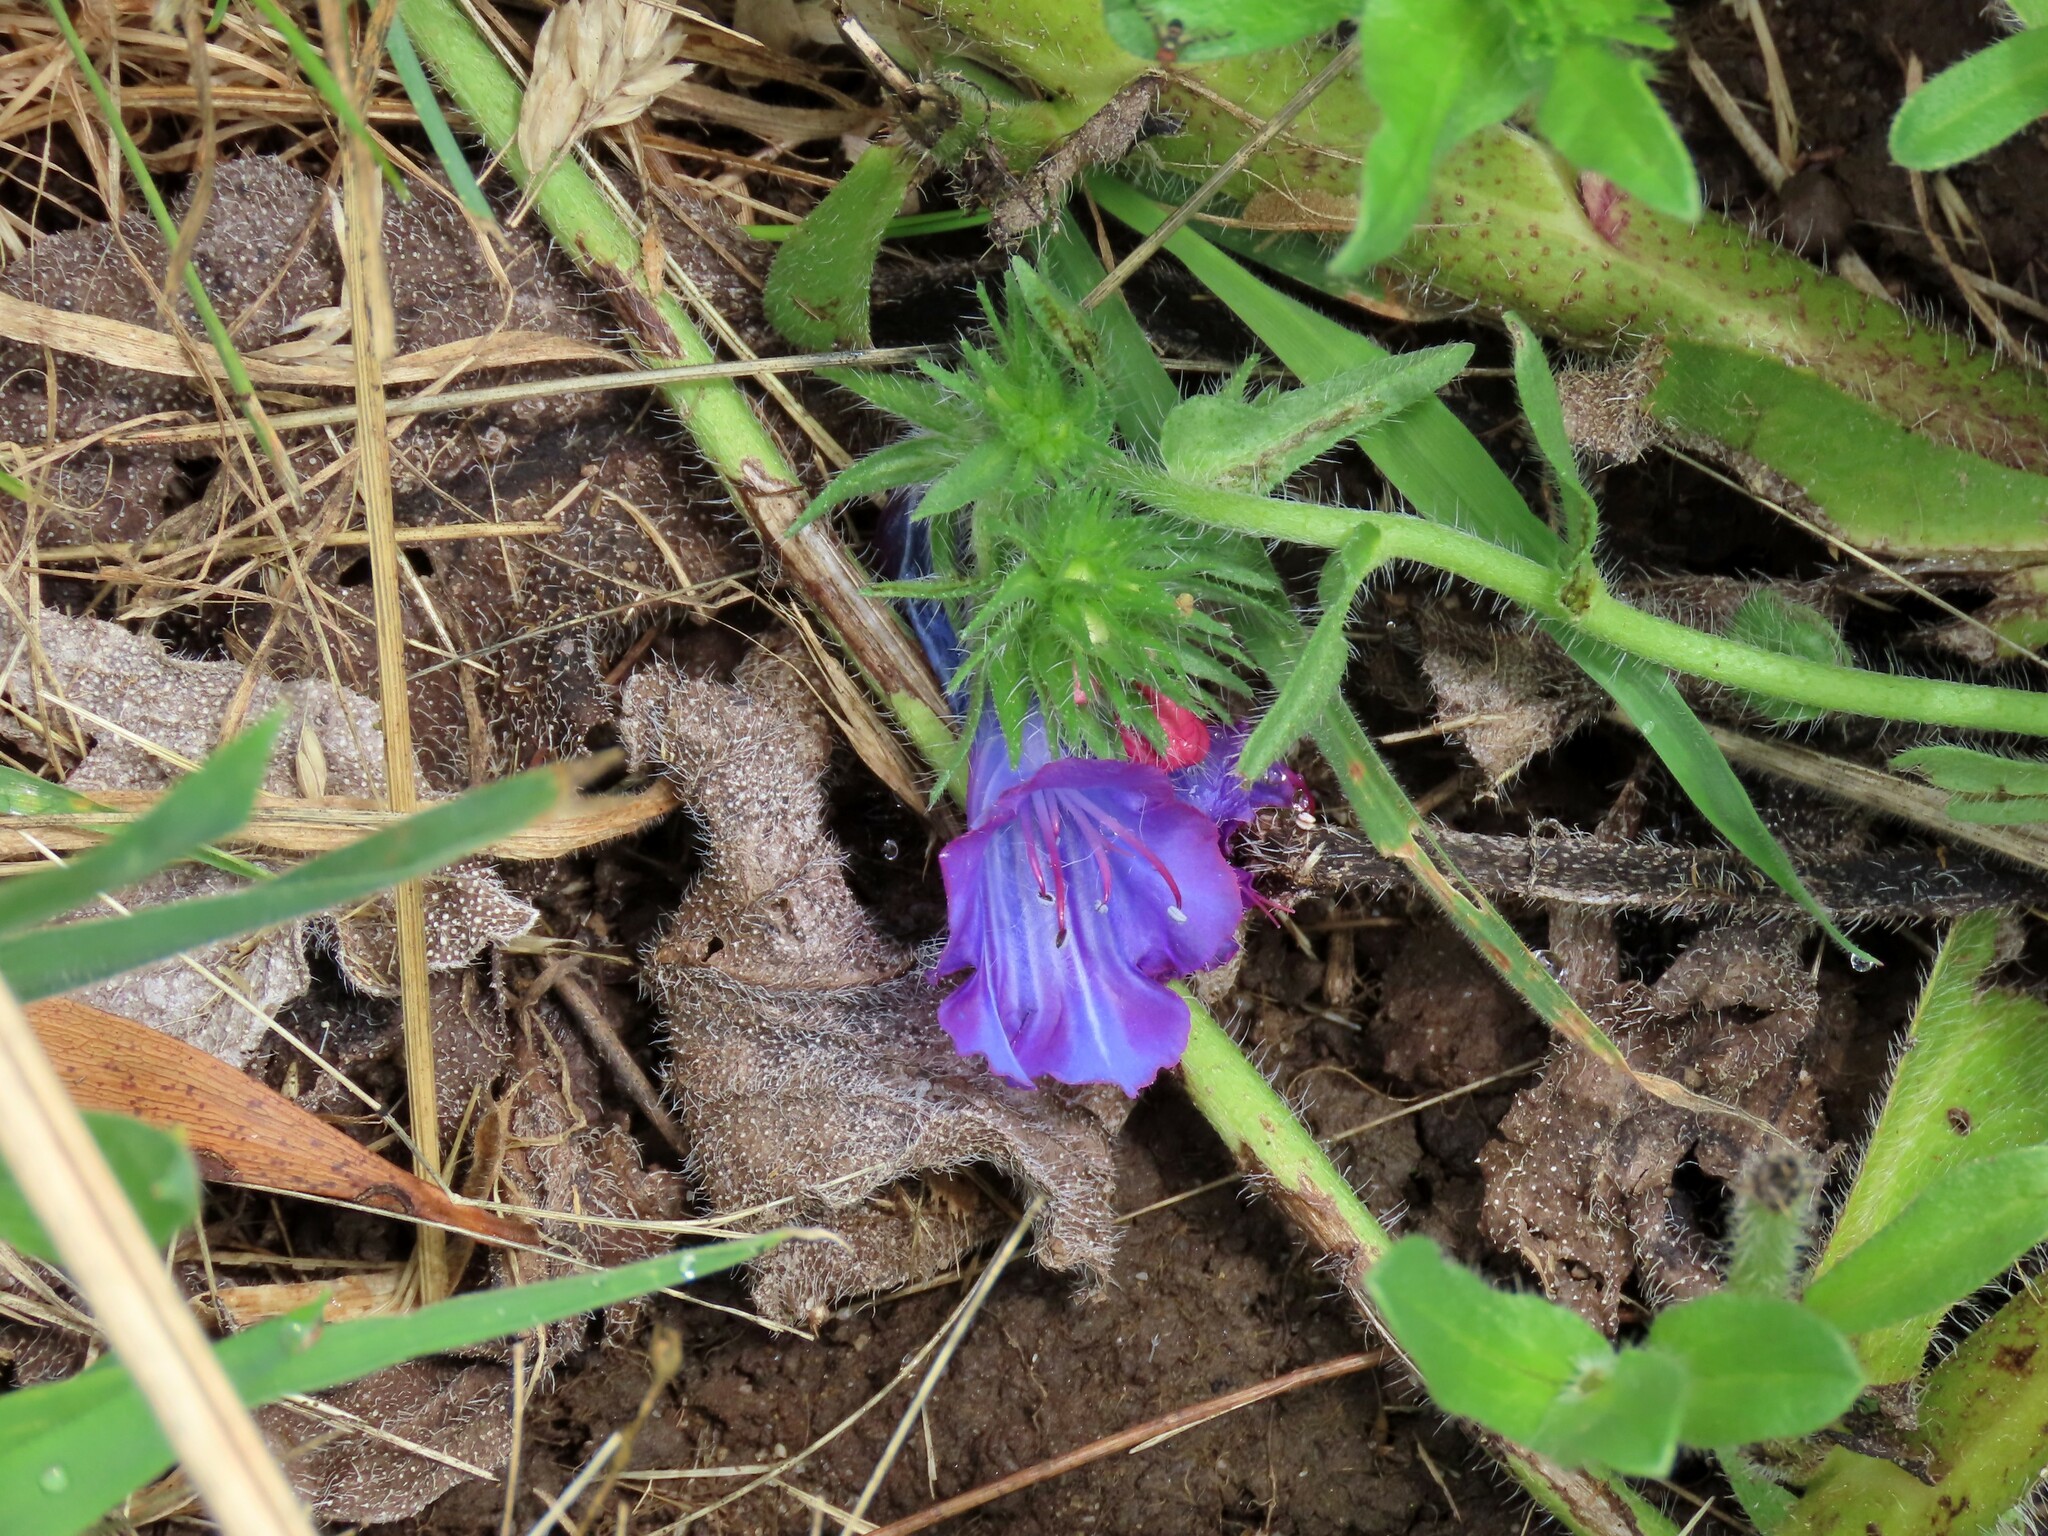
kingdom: Plantae
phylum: Tracheophyta
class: Magnoliopsida
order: Boraginales
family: Boraginaceae
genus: Echium
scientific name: Echium plantagineum
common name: Purple viper's-bugloss
